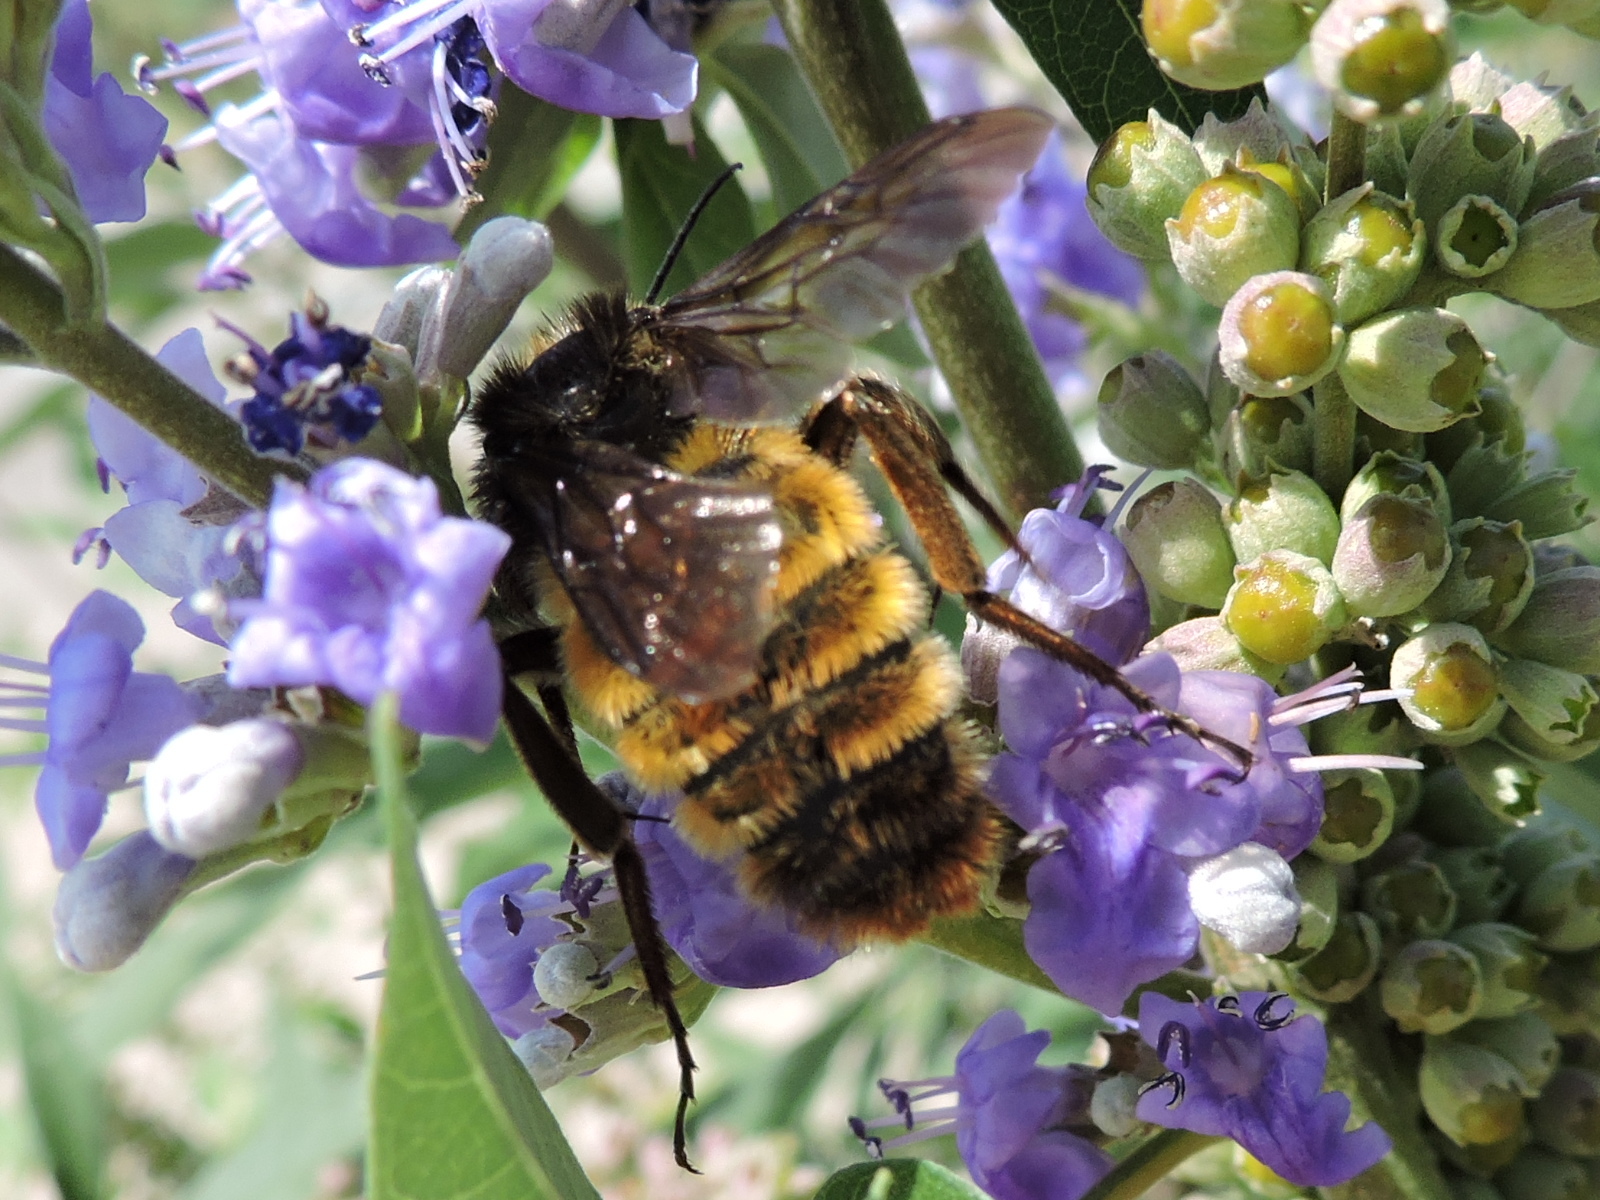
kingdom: Animalia
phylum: Arthropoda
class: Insecta
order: Hymenoptera
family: Apidae
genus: Bombus
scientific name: Bombus pensylvanicus
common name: Bumble bee
